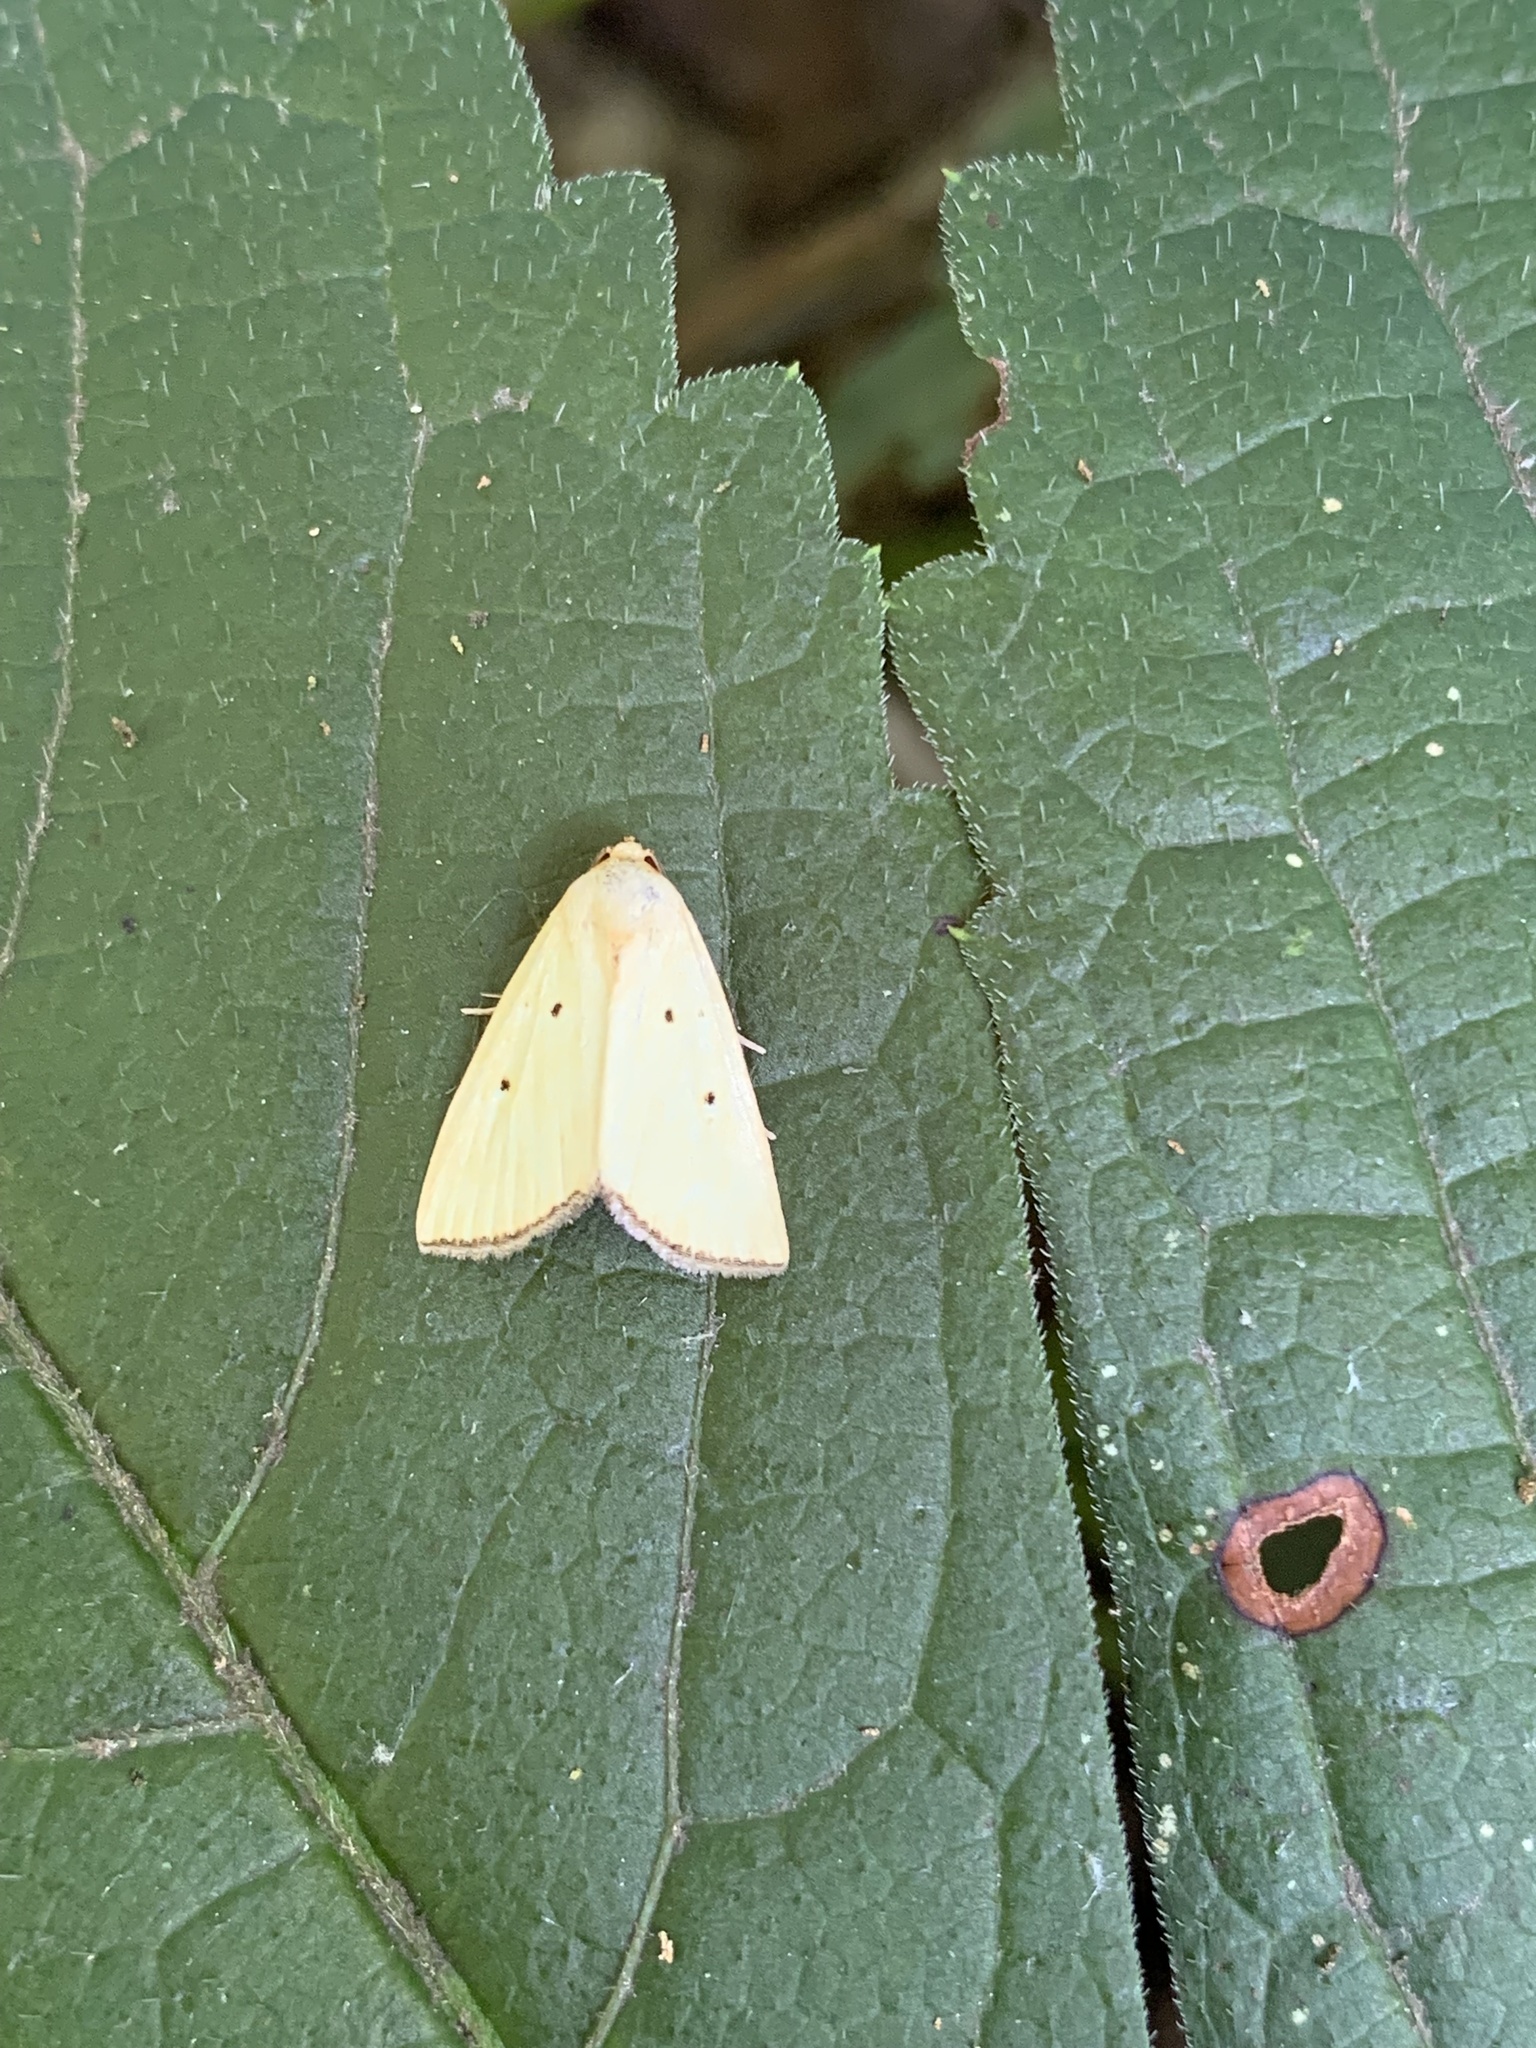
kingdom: Animalia
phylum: Arthropoda
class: Insecta
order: Lepidoptera
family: Noctuidae
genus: Marimatha
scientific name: Marimatha nigrofimbria
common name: Black-bordered lemon moth
